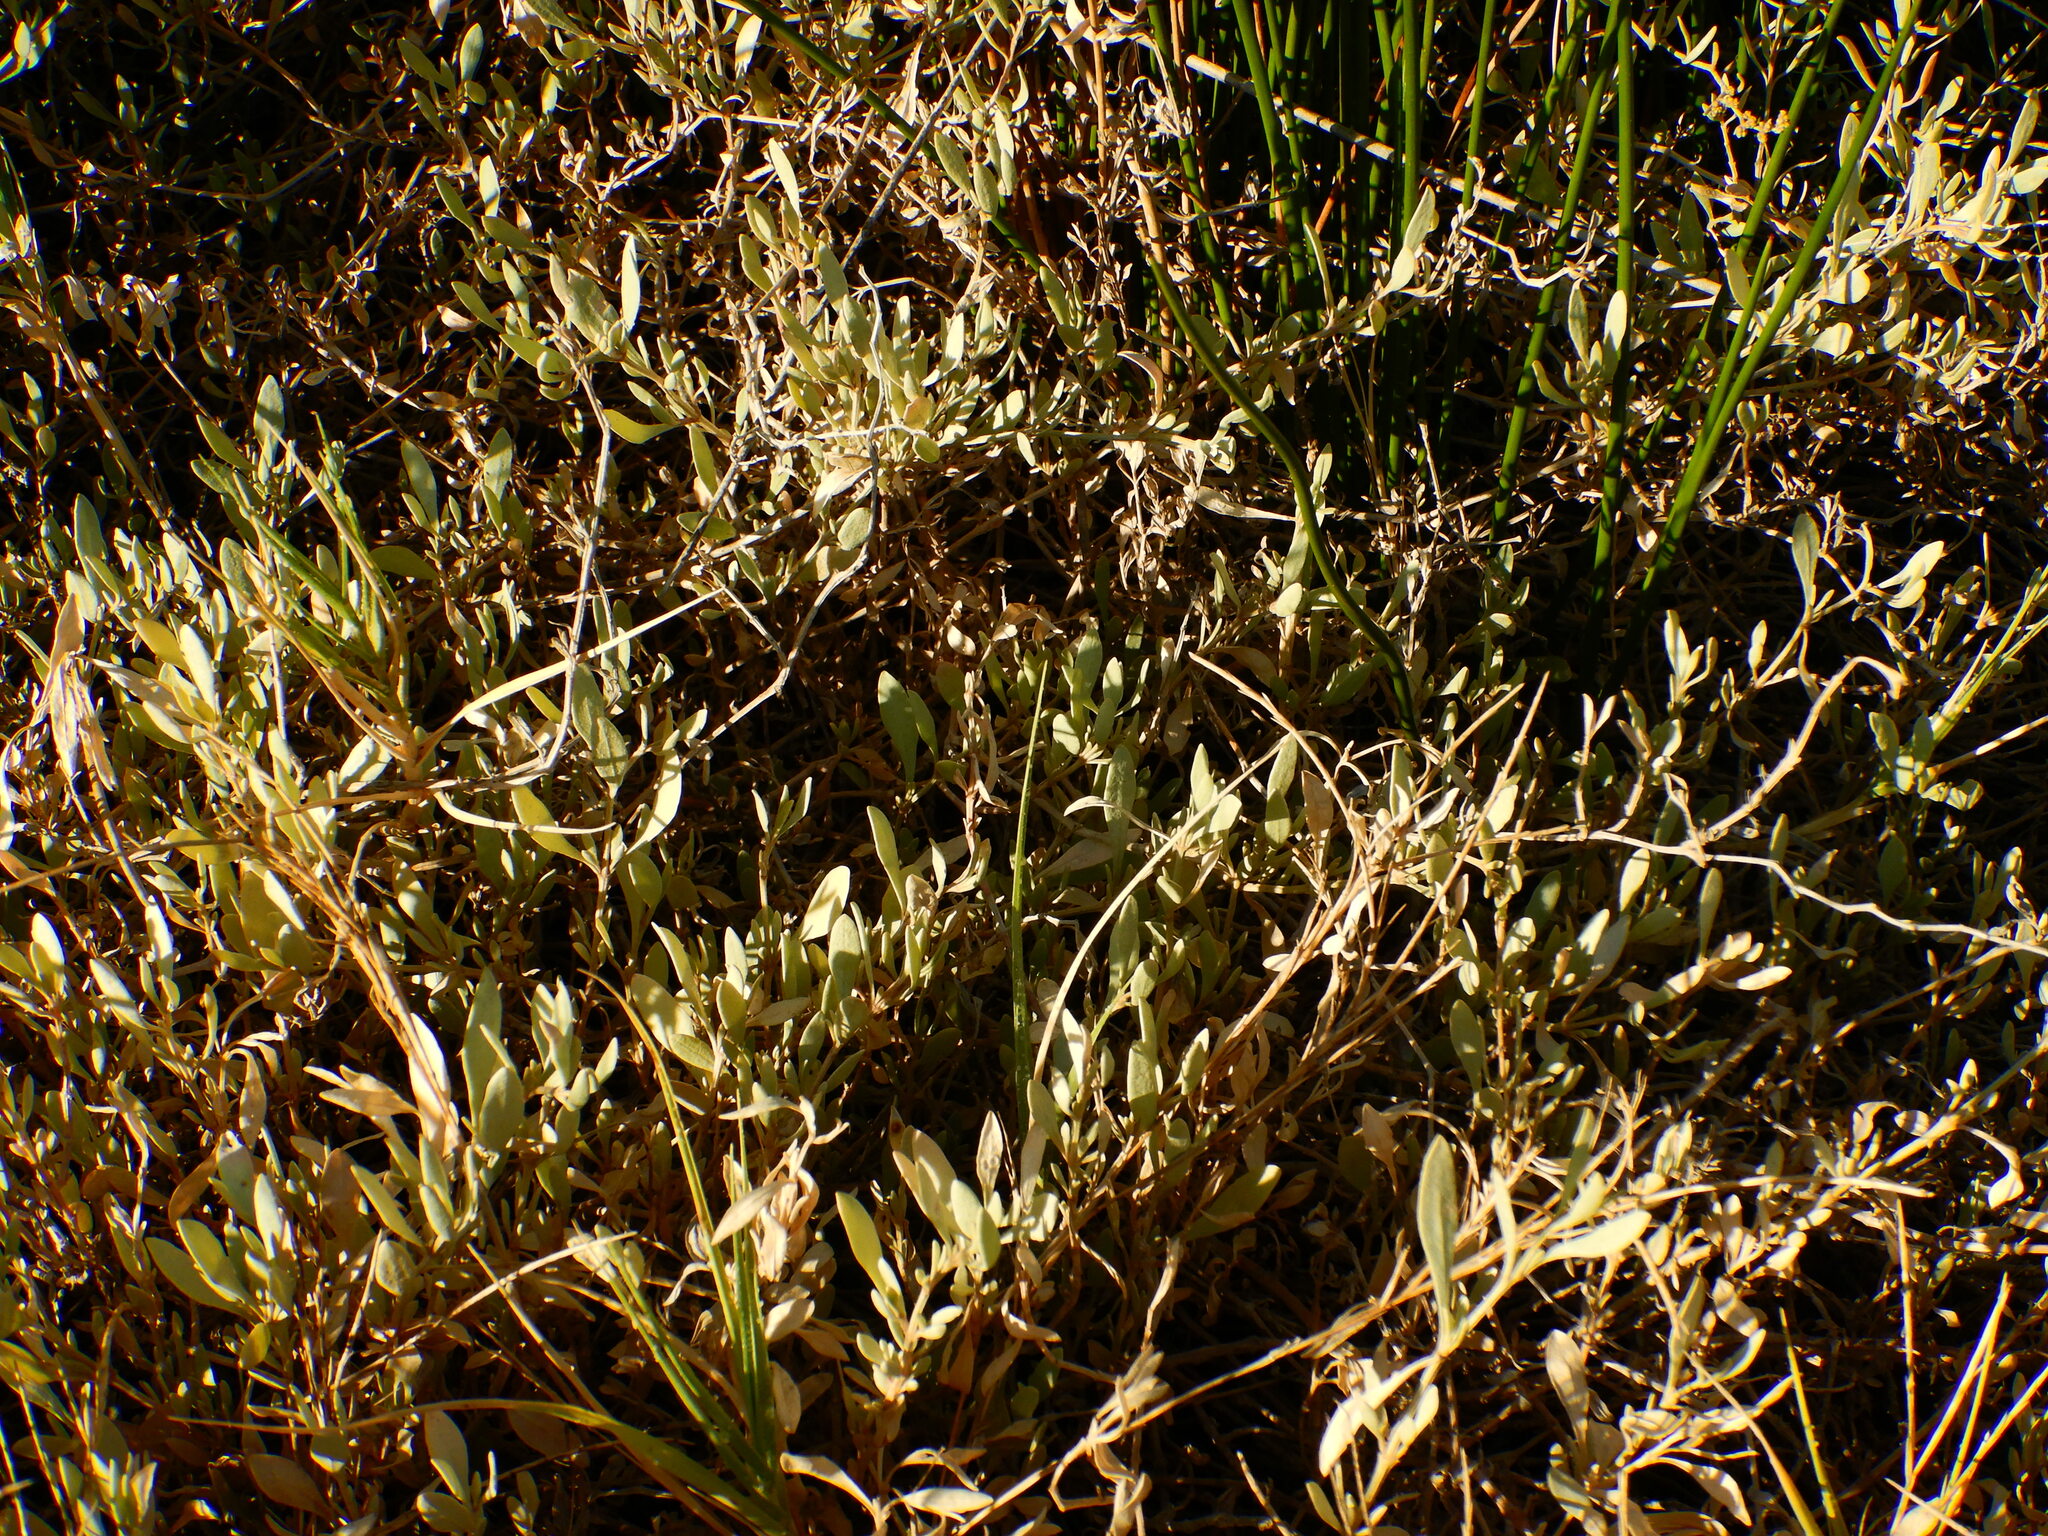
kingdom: Plantae
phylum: Tracheophyta
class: Magnoliopsida
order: Caryophyllales
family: Amaranthaceae
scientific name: Amaranthaceae
